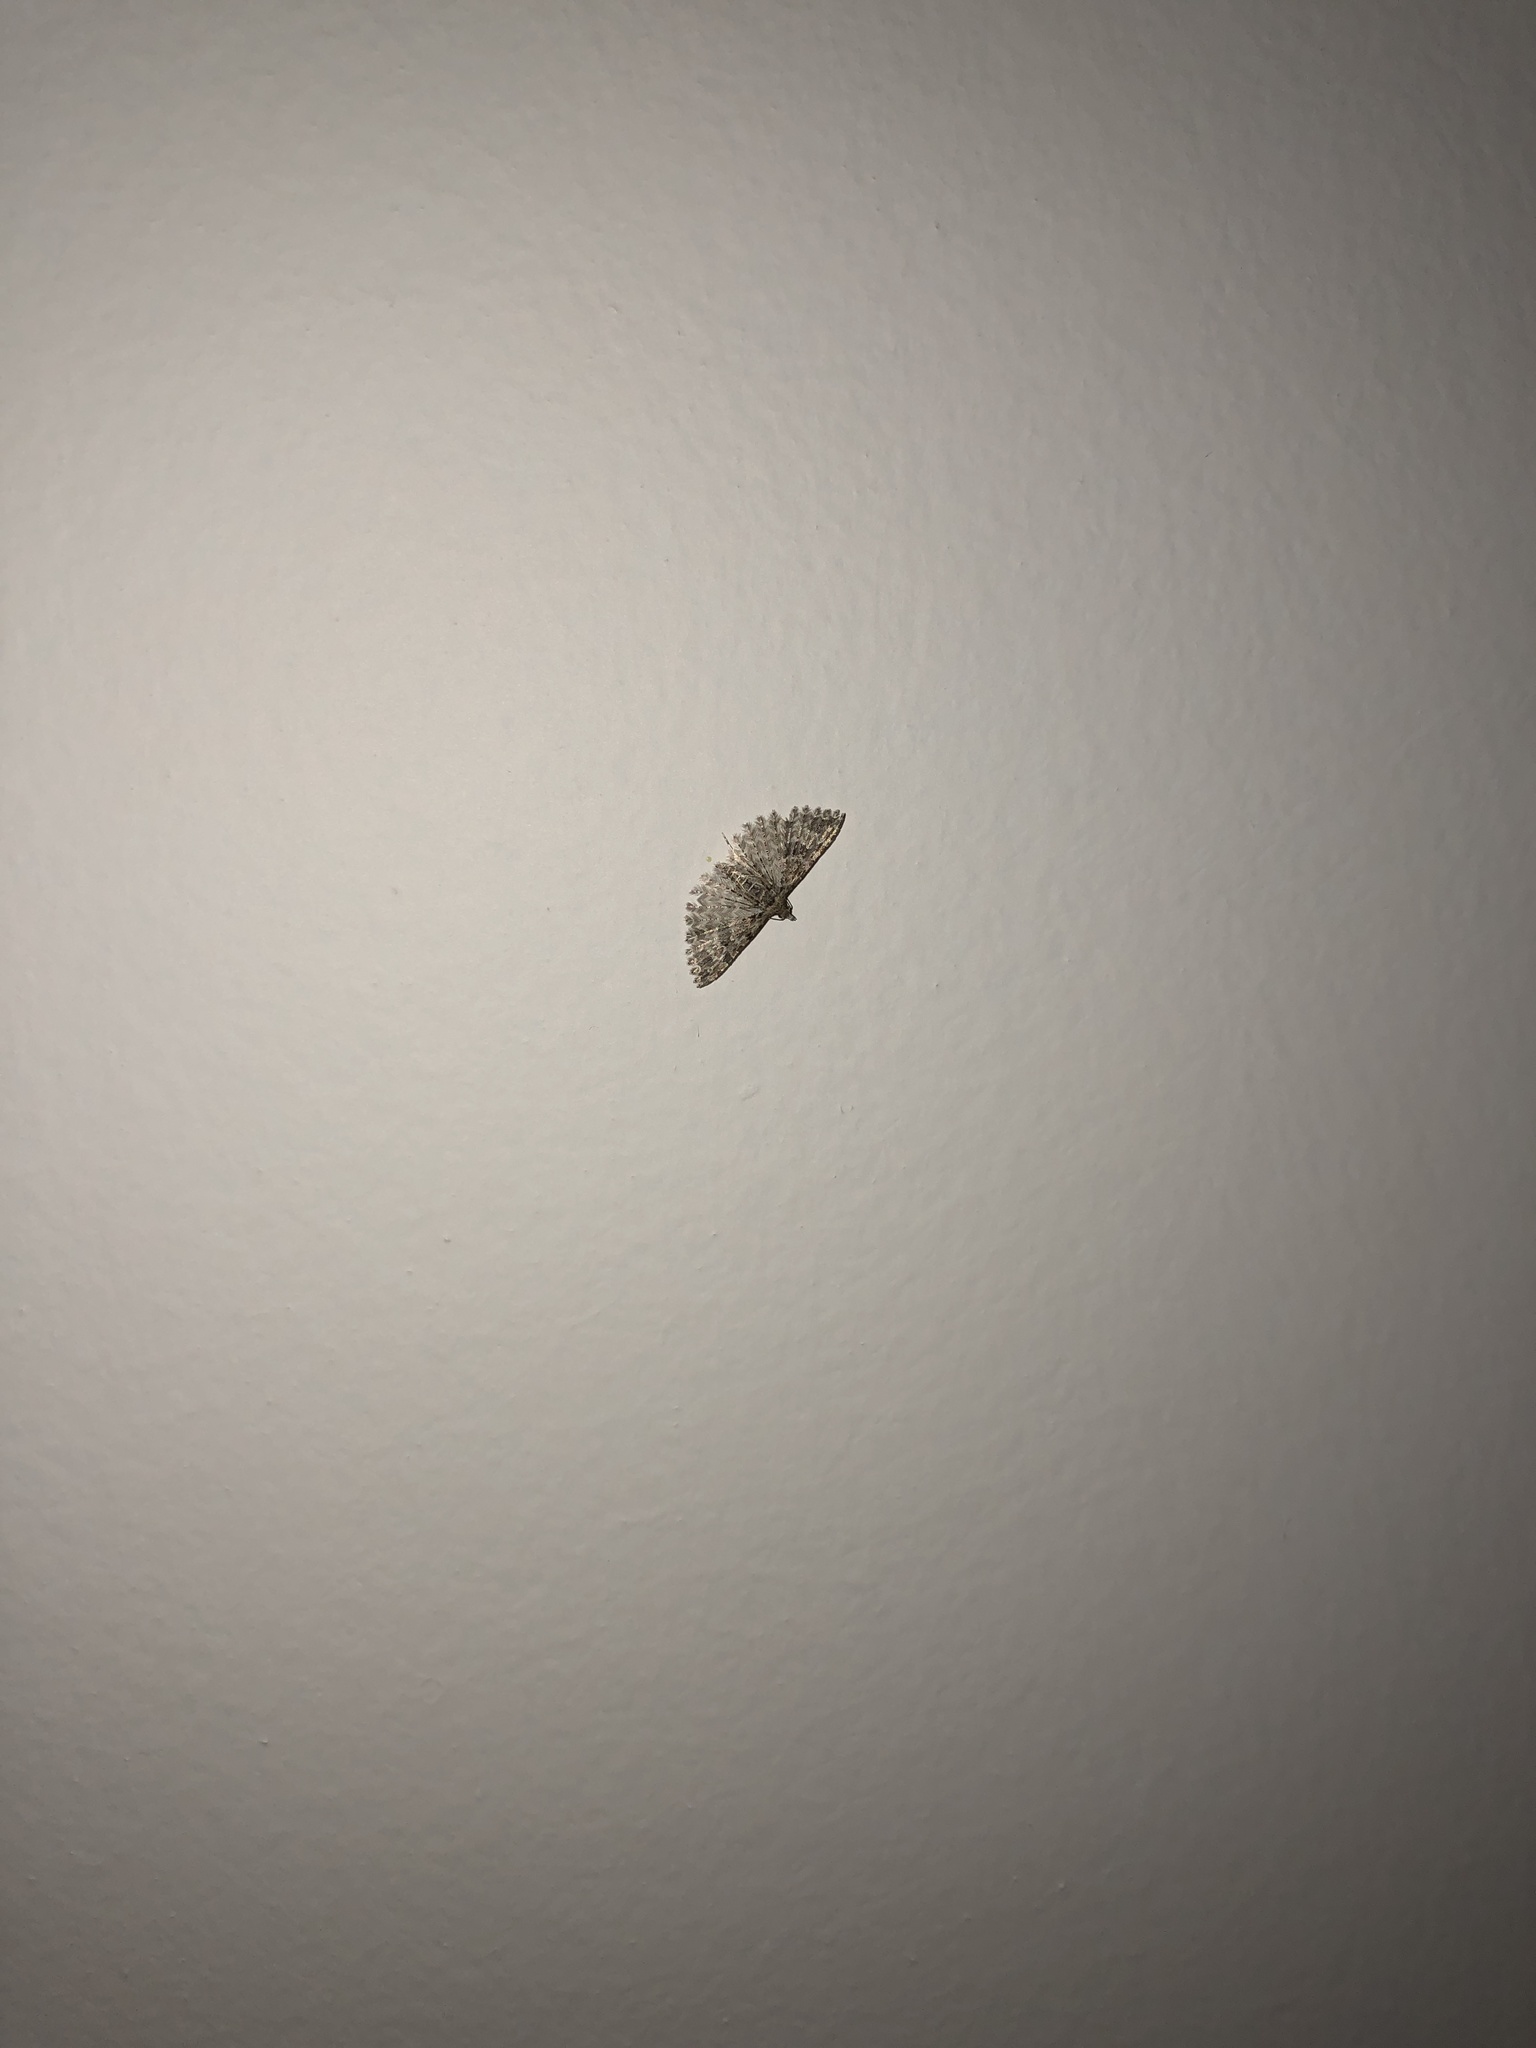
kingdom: Animalia
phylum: Arthropoda
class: Insecta
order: Lepidoptera
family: Alucitidae
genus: Alucita
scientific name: Alucita montana
